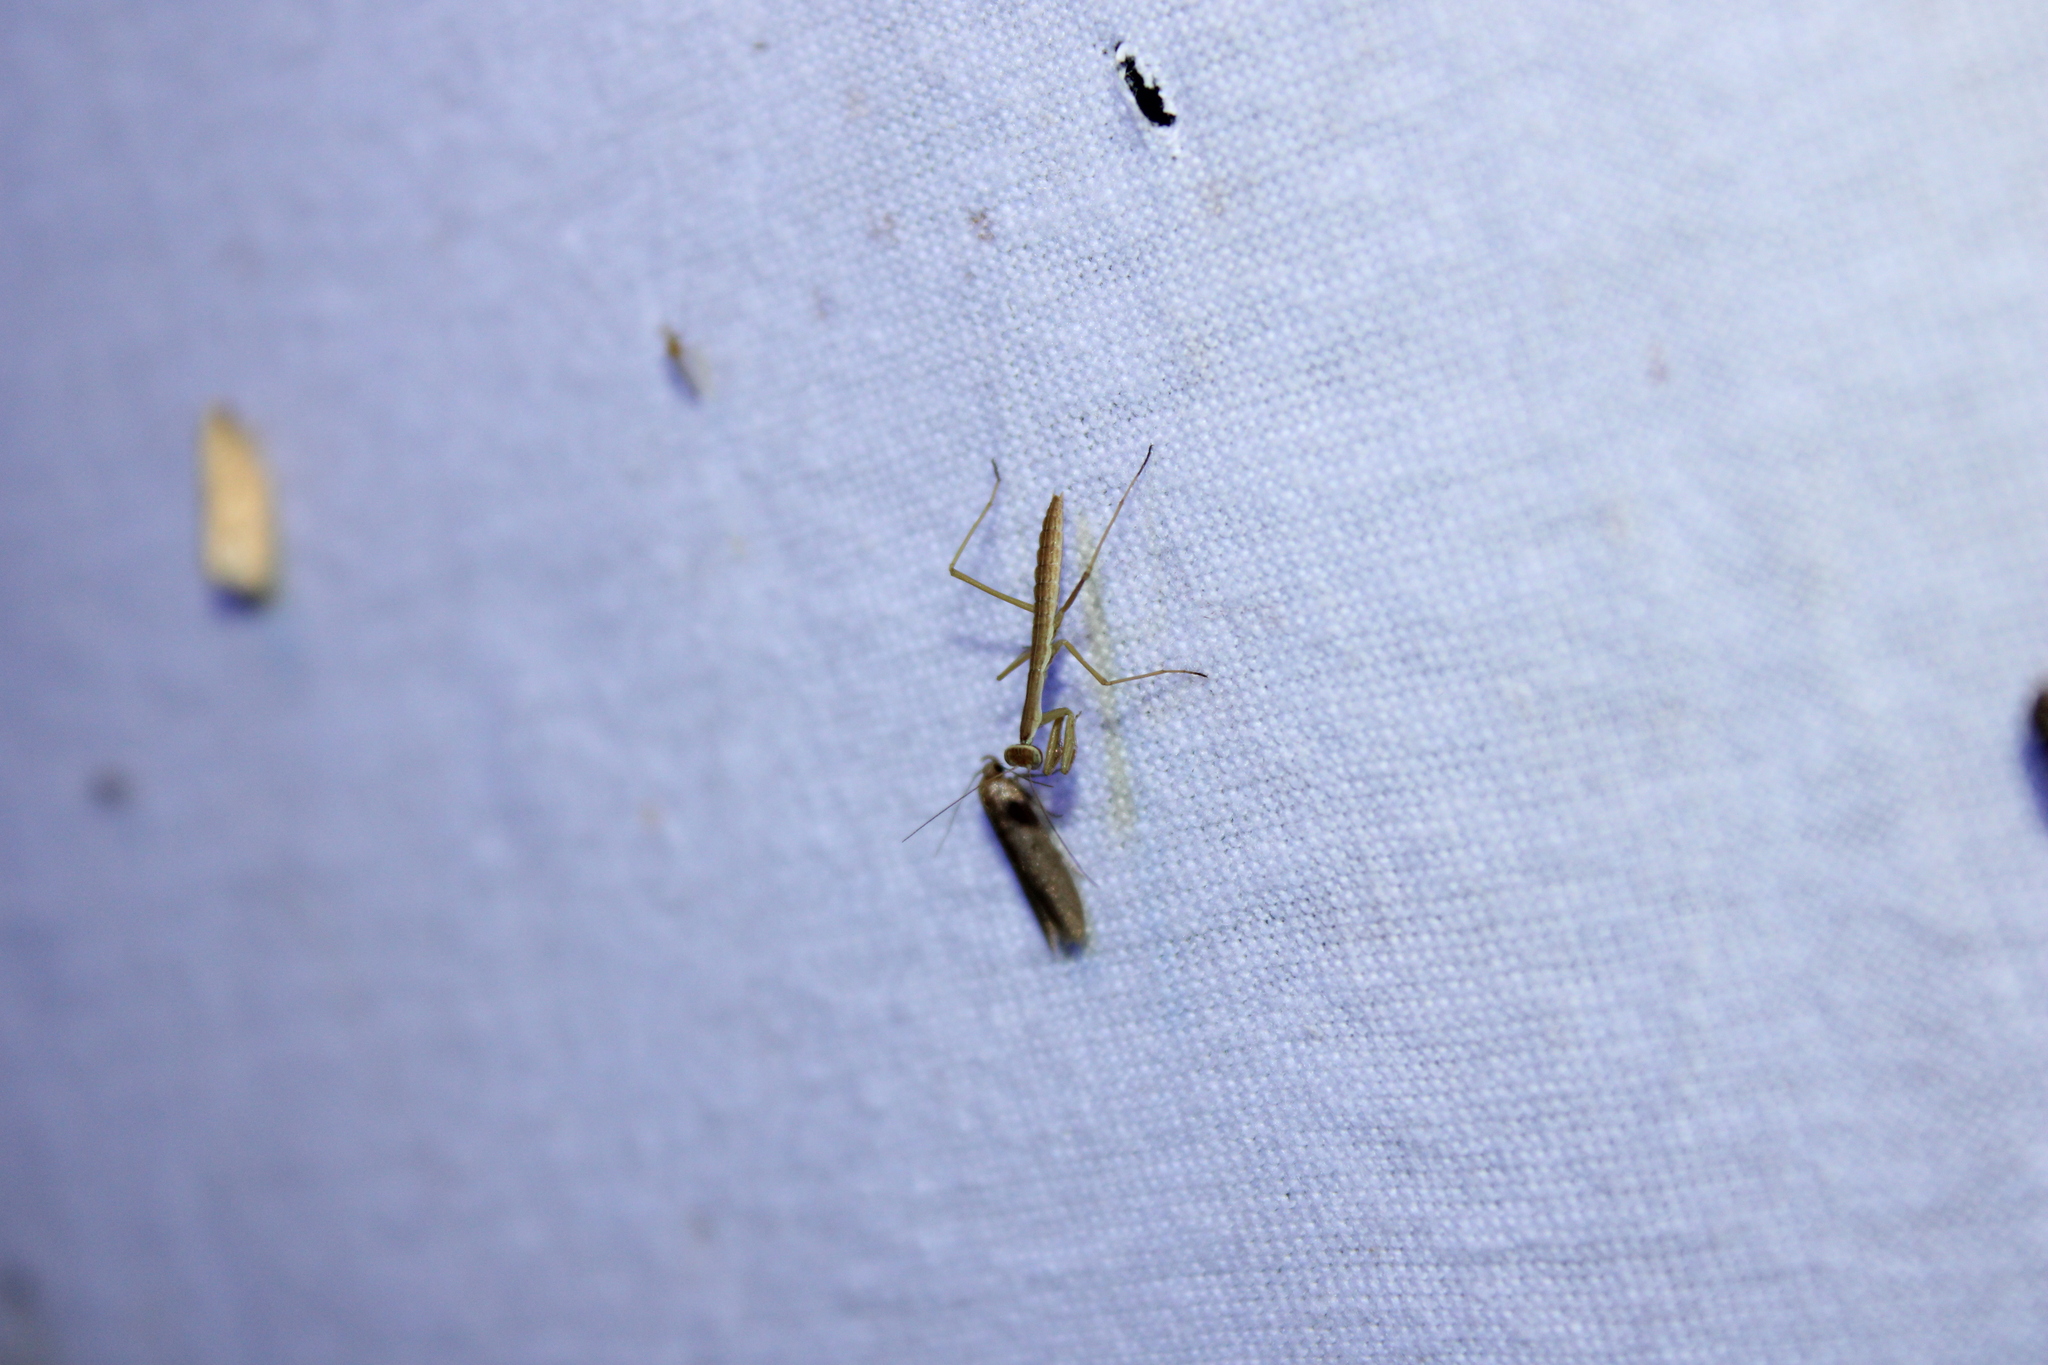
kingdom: Animalia
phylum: Arthropoda
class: Insecta
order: Mantodea
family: Mantidae
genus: Tenodera
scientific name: Tenodera sinensis
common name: Chinese mantis
